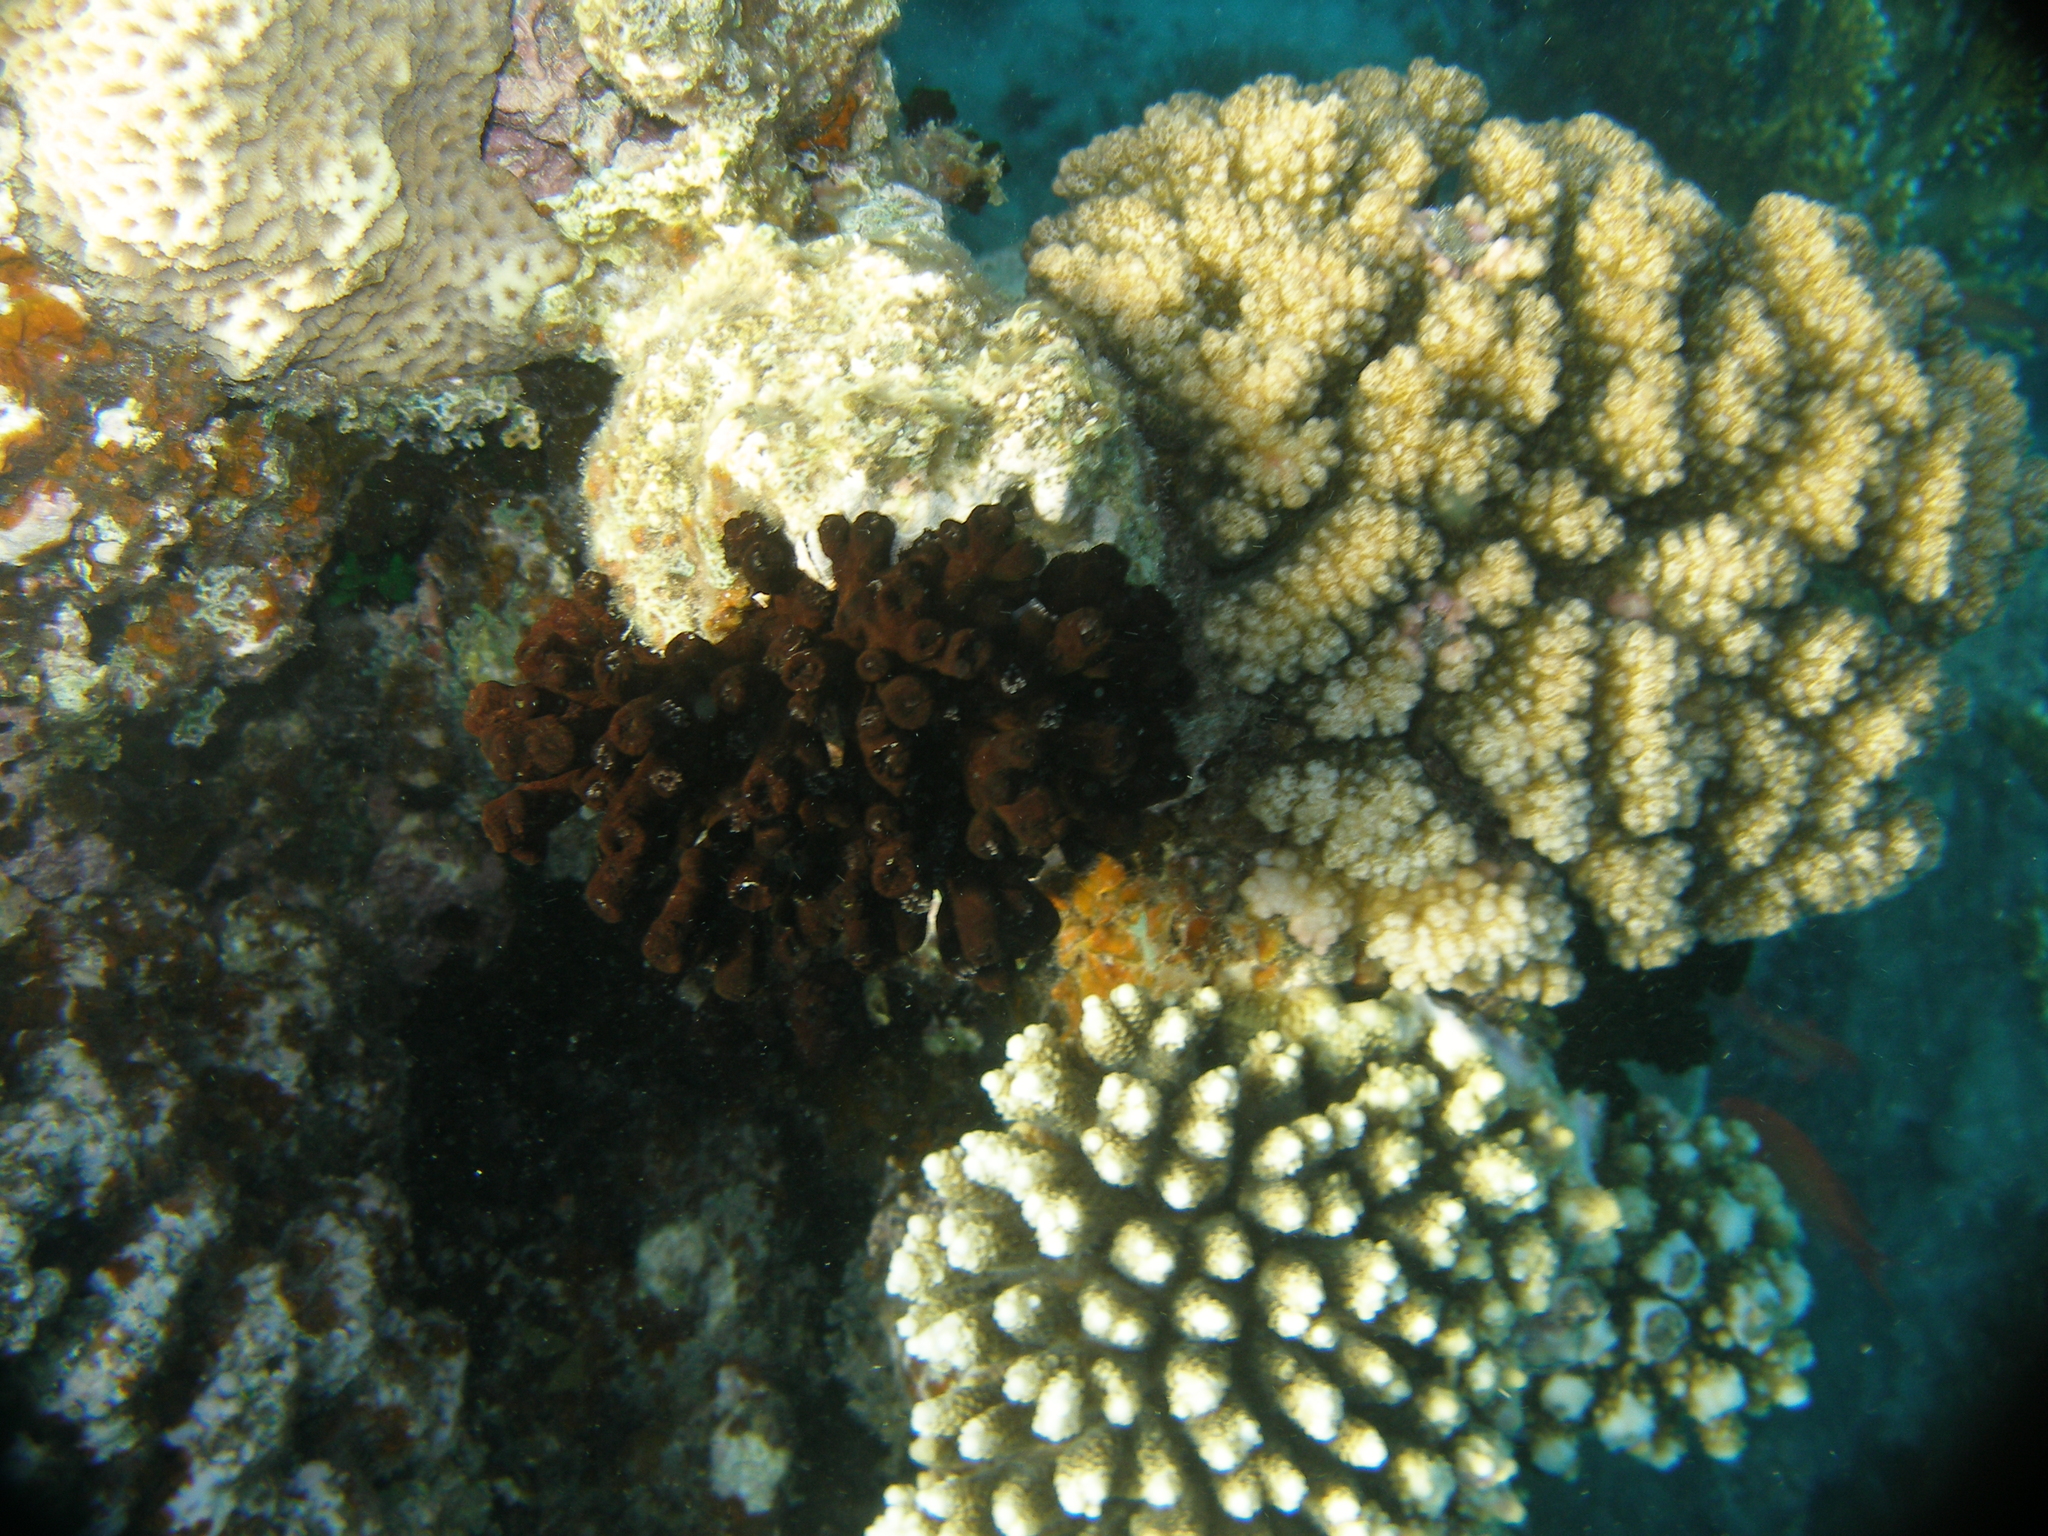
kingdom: Animalia
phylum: Cnidaria
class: Anthozoa
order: Scleractinia
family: Dendrophylliidae
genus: Tubastraea
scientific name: Tubastraea micranthus
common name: Black sun coral
